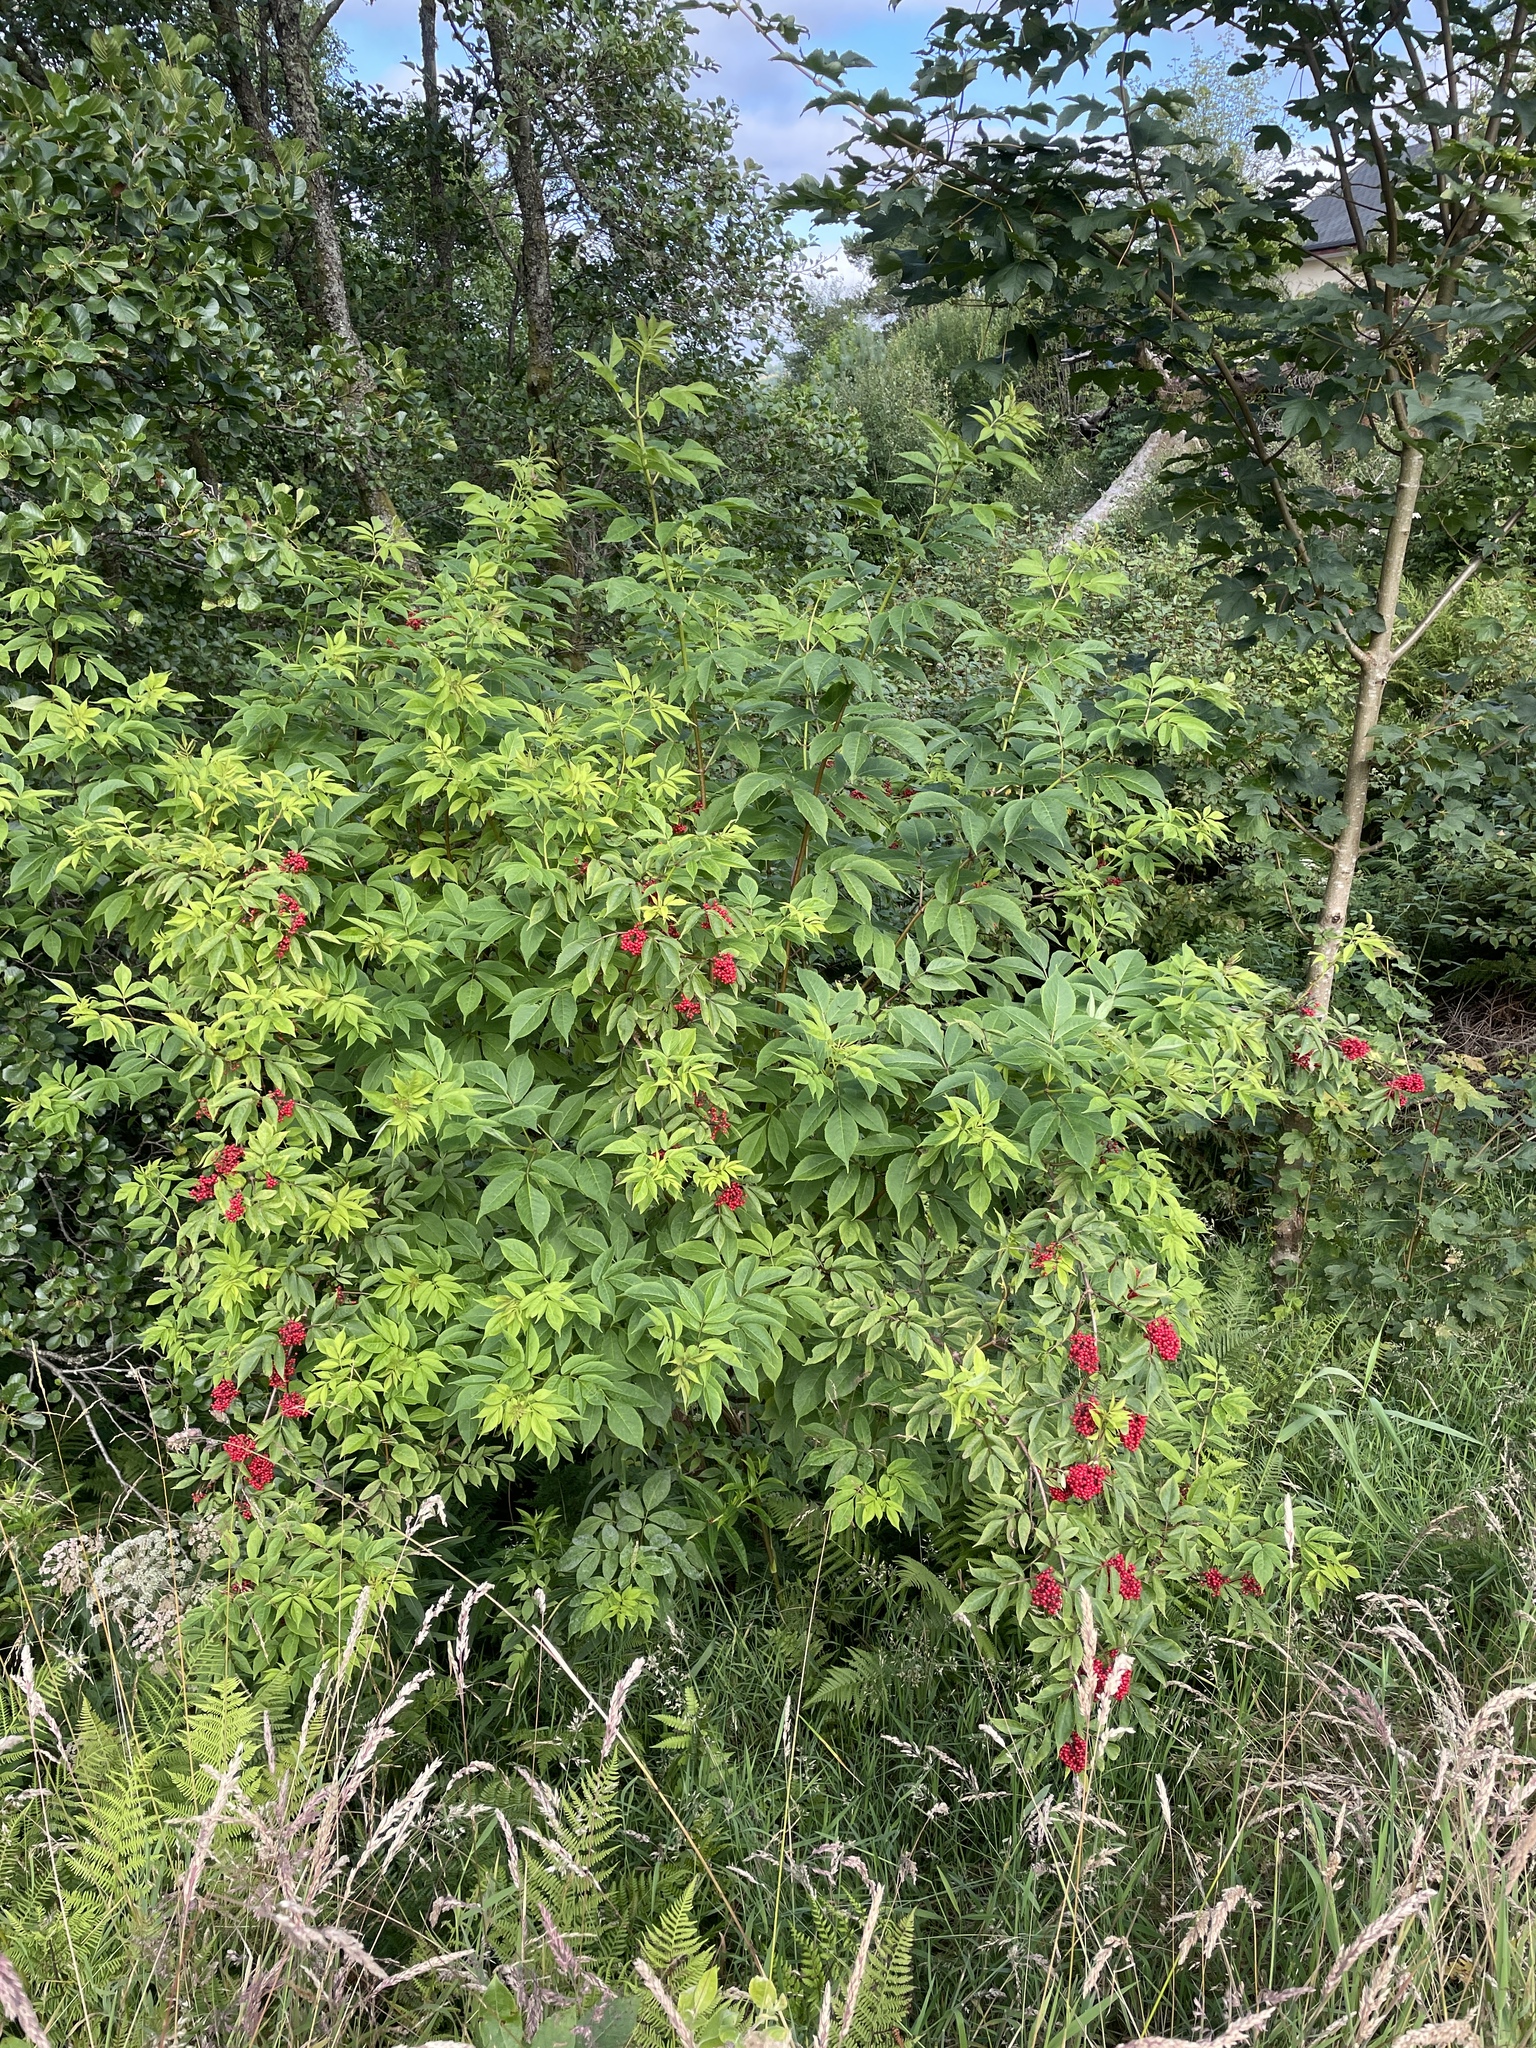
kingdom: Plantae
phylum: Tracheophyta
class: Magnoliopsida
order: Dipsacales
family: Viburnaceae
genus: Sambucus
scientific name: Sambucus racemosa
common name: Red-berried elder
